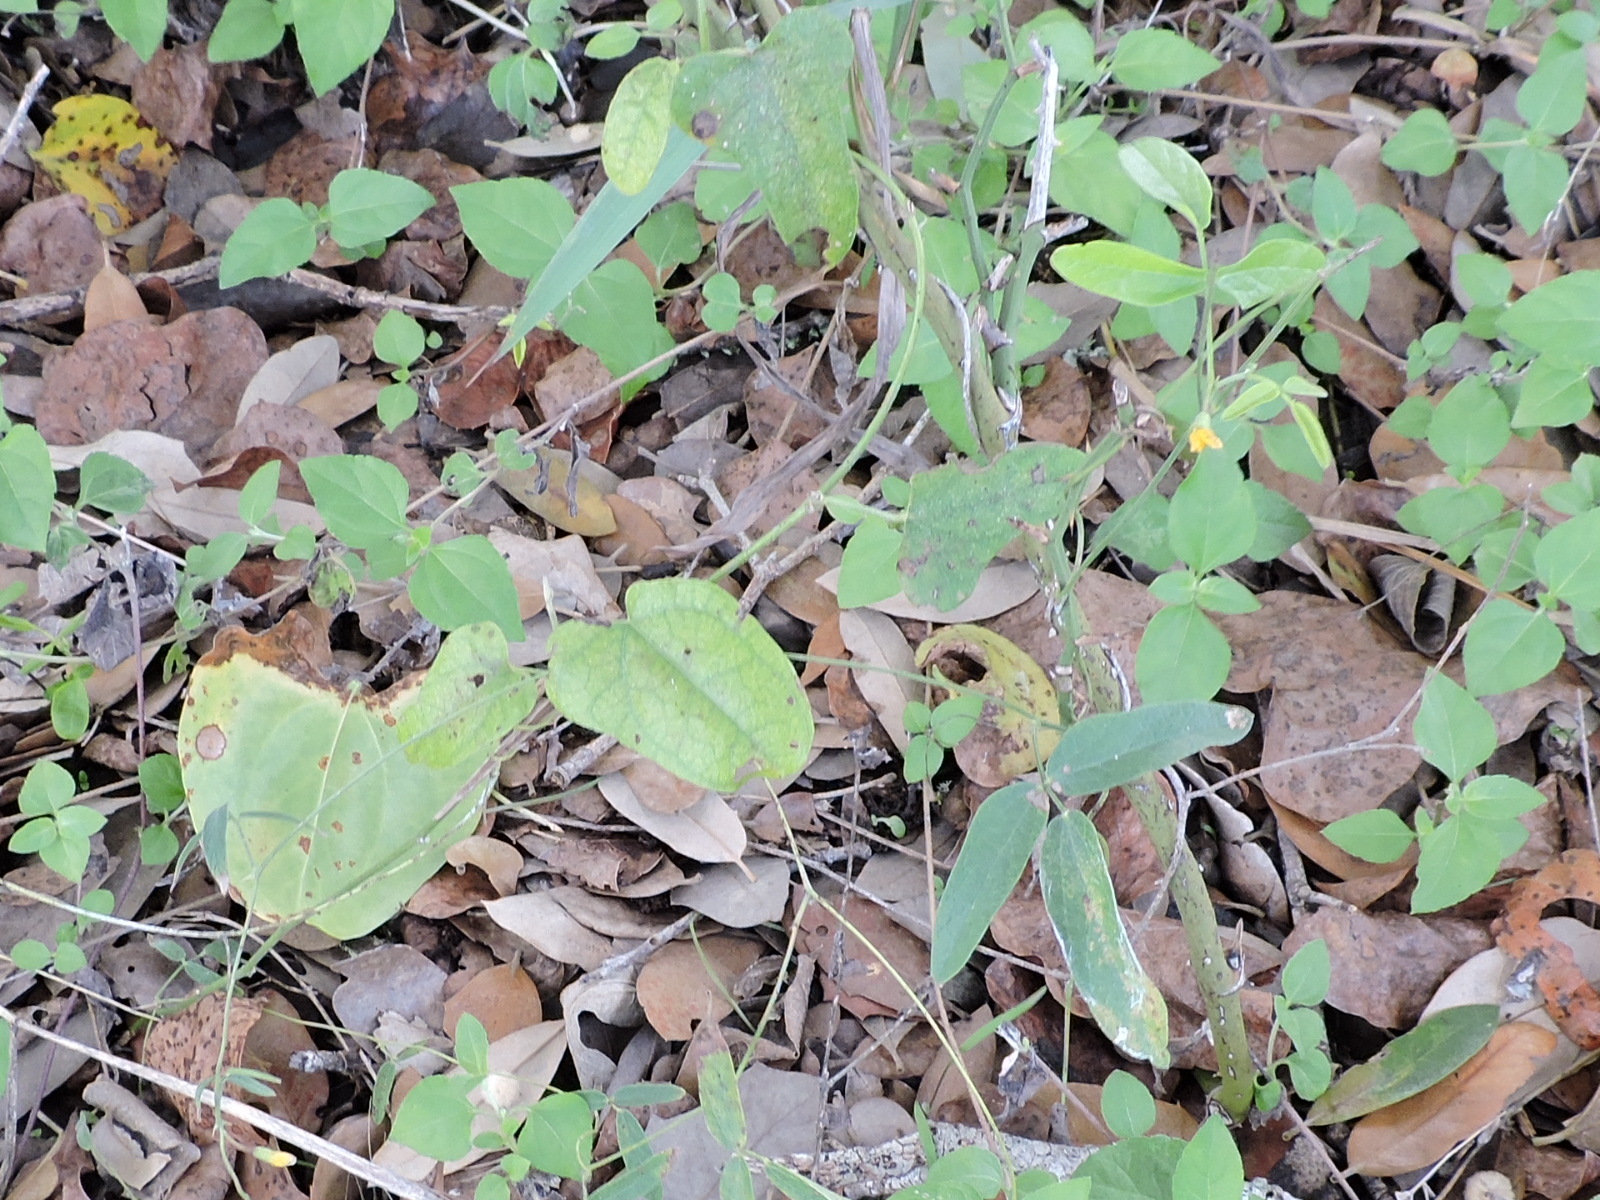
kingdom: Plantae
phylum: Tracheophyta
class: Magnoliopsida
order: Fabales
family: Fabaceae
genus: Rhynchosia
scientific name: Rhynchosia senna
